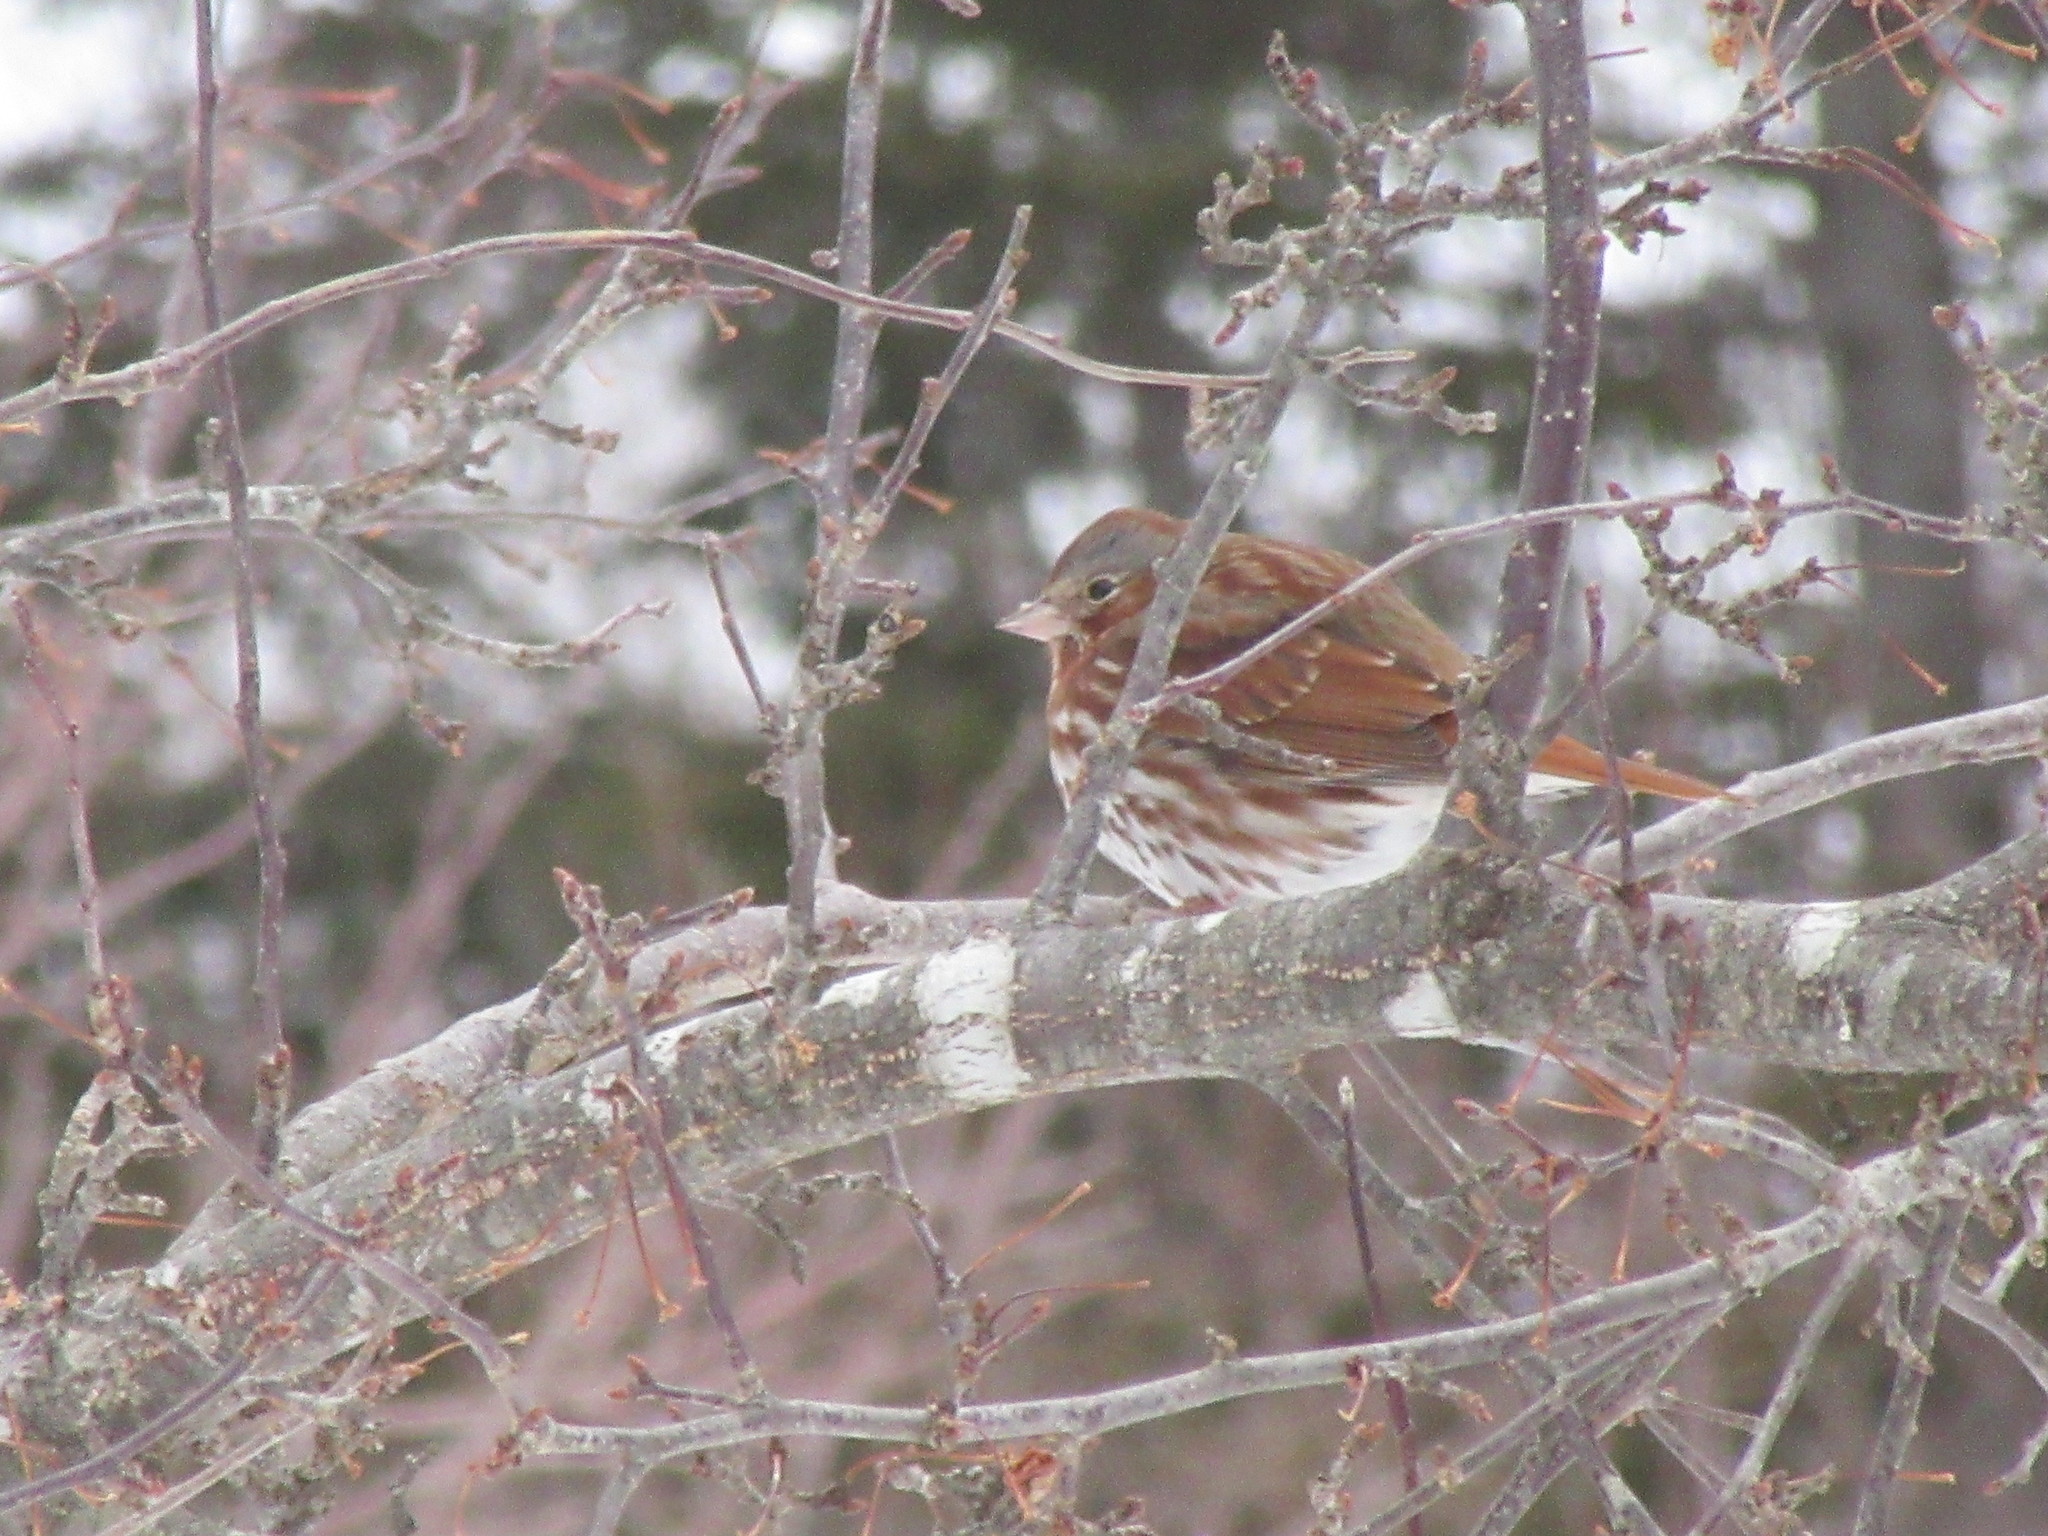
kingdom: Animalia
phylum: Chordata
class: Aves
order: Passeriformes
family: Passerellidae
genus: Passerella
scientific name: Passerella iliaca
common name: Fox sparrow
